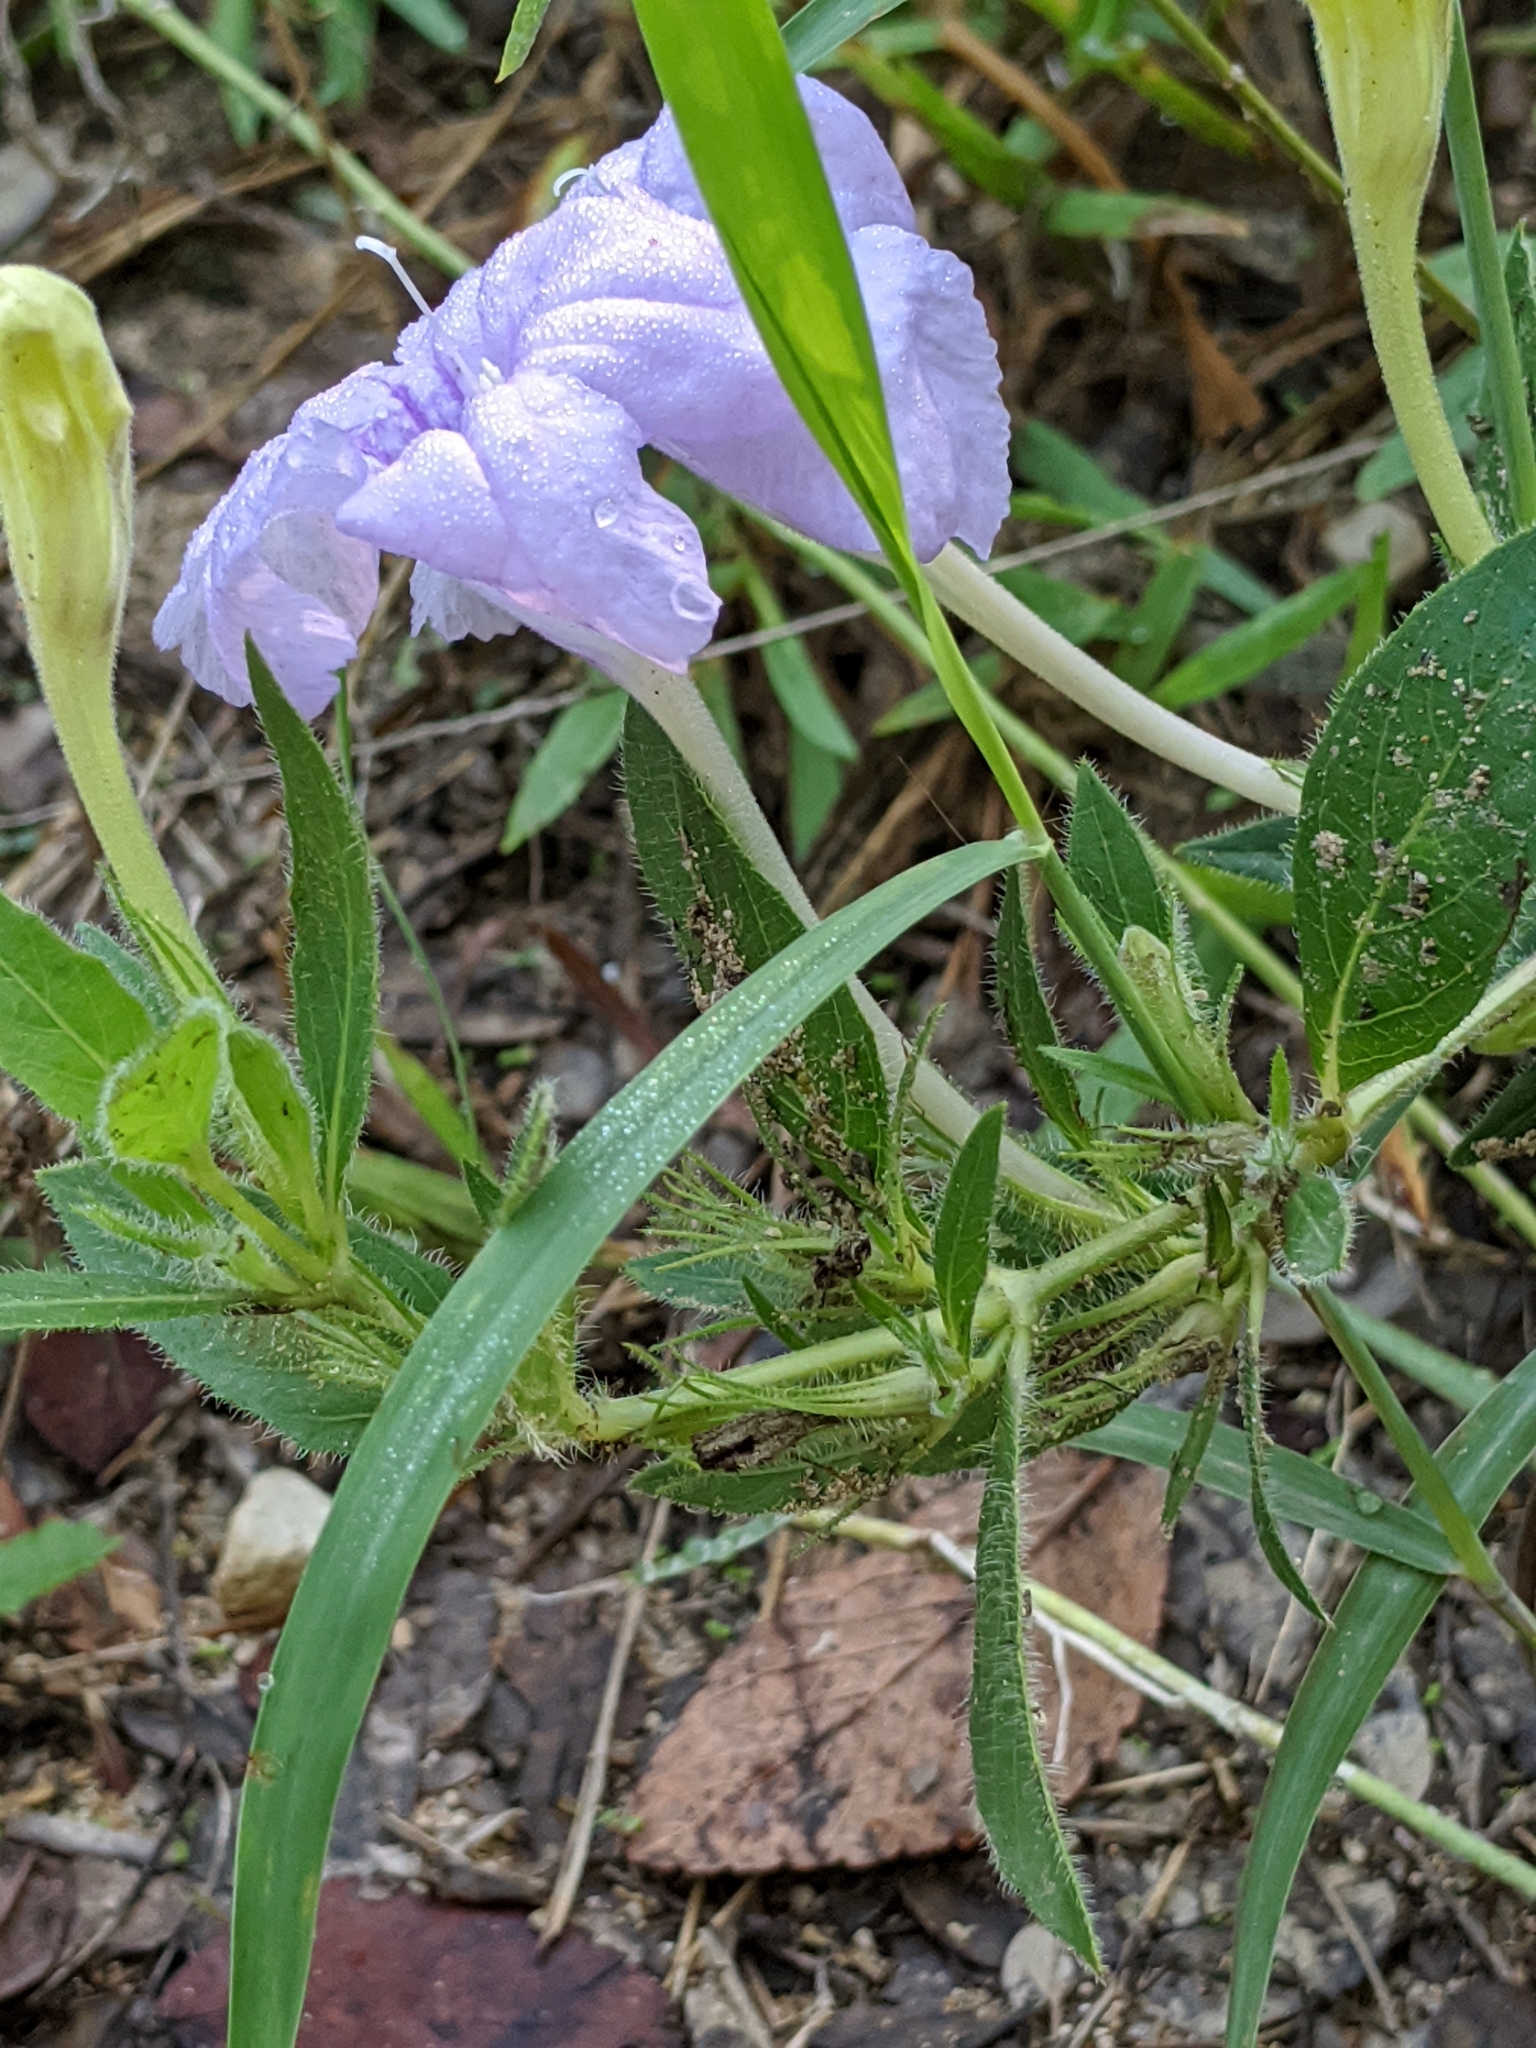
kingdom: Plantae
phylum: Tracheophyta
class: Magnoliopsida
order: Lamiales
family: Acanthaceae
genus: Ruellia
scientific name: Ruellia humilis
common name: Fringe-leaf ruellia
